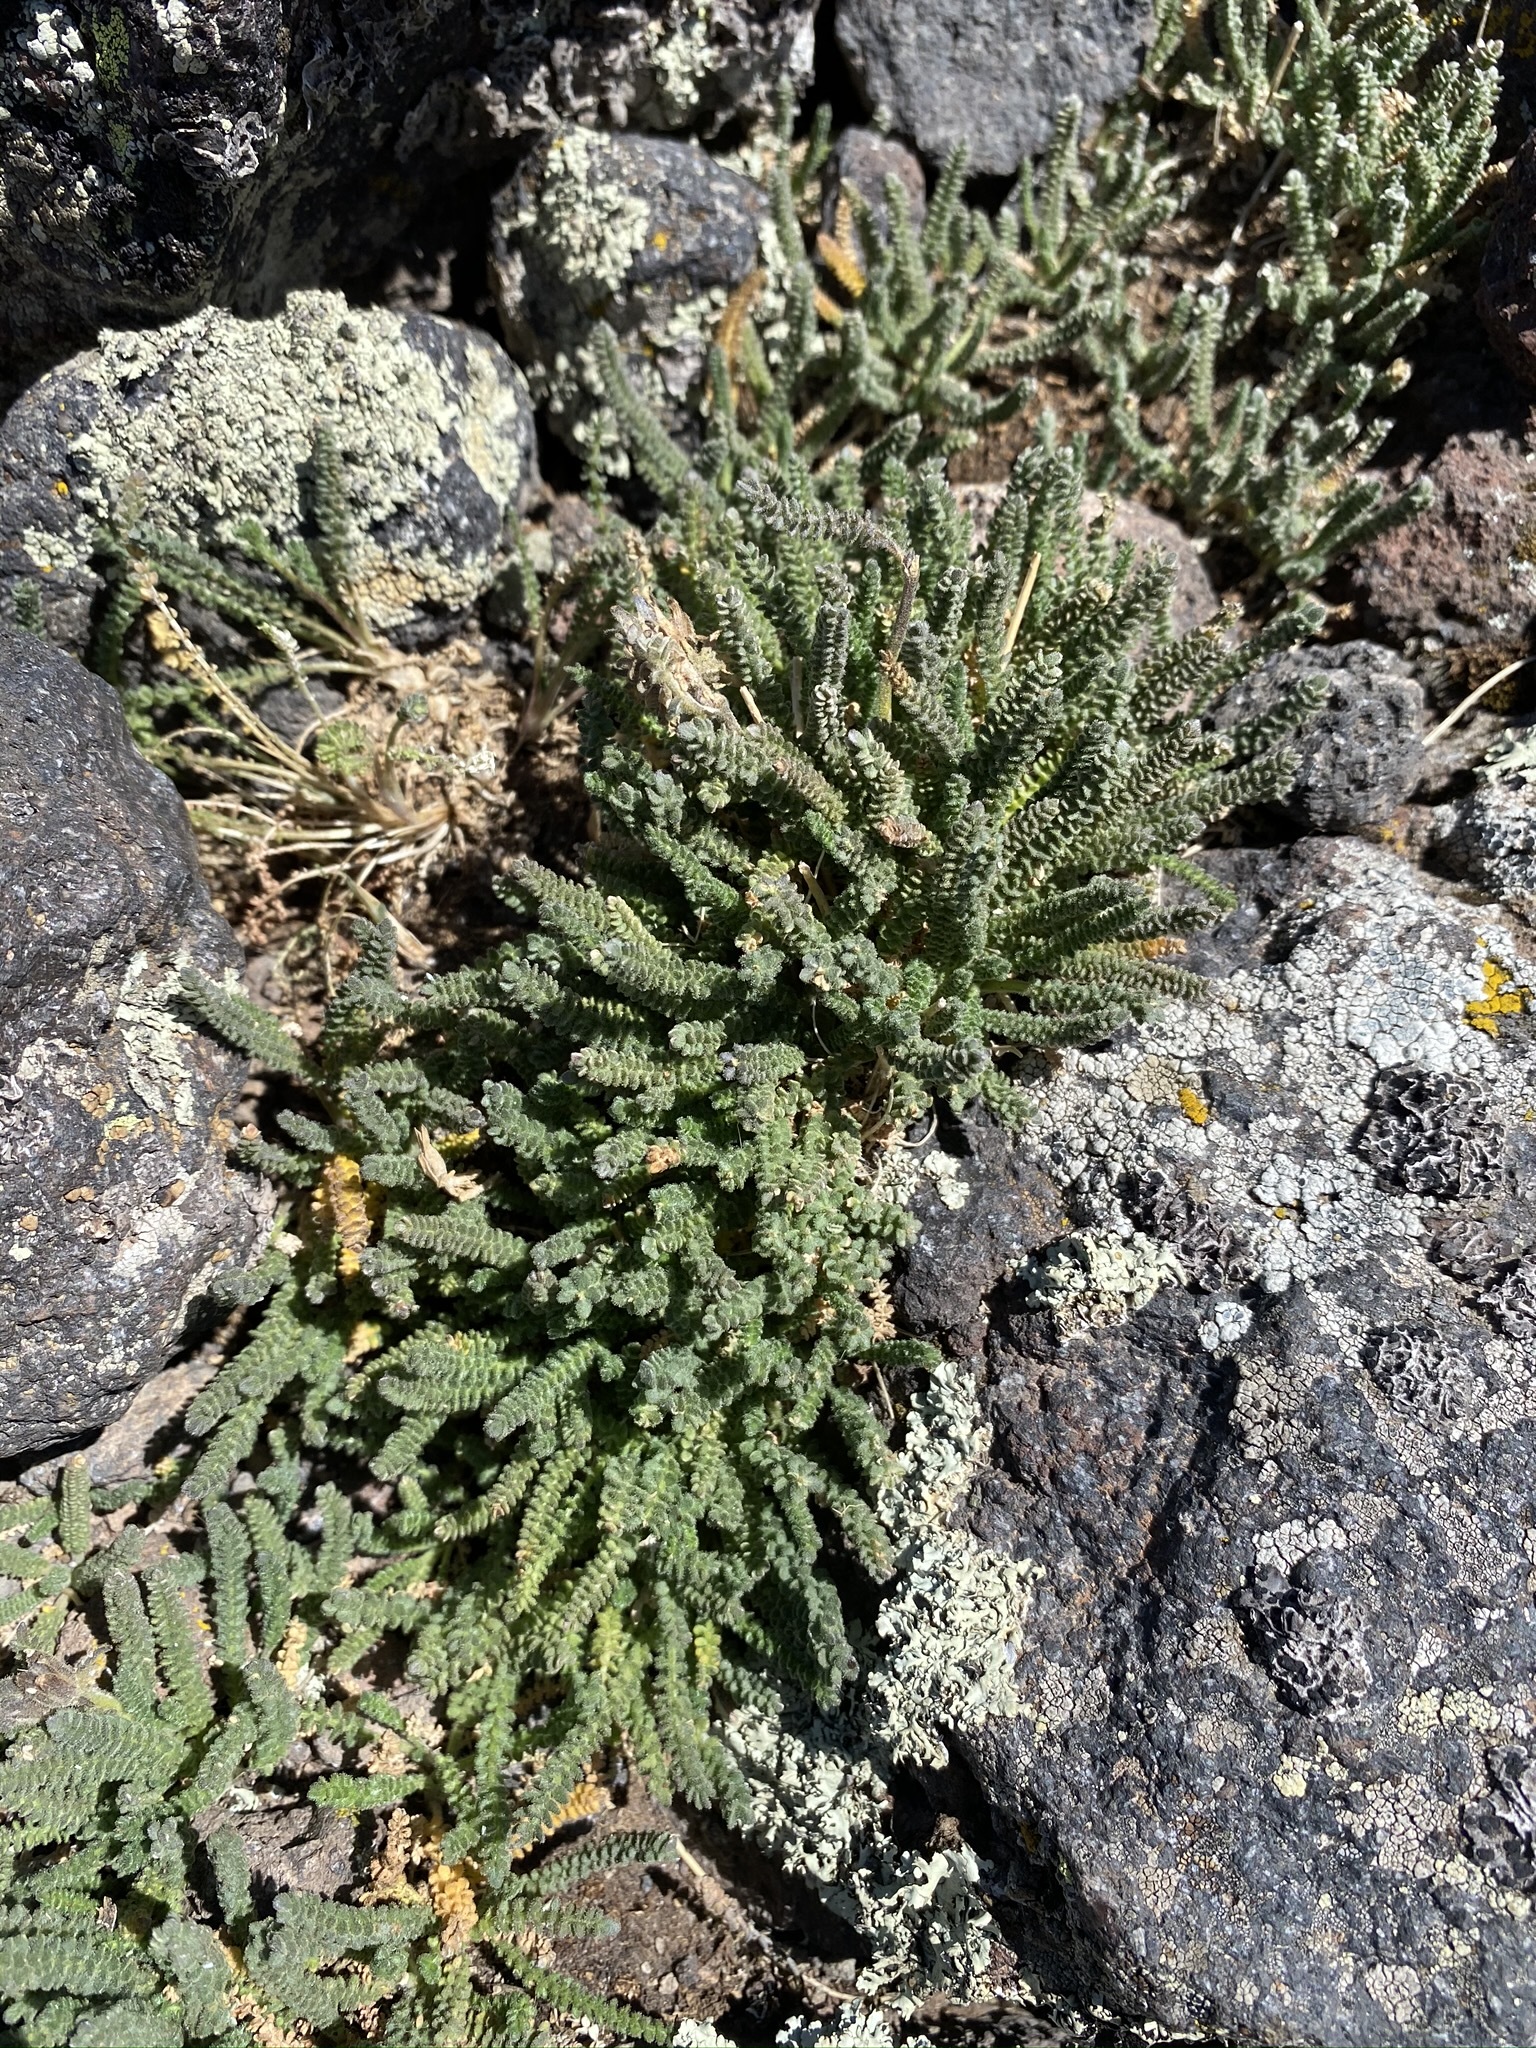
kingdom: Plantae
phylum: Tracheophyta
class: Magnoliopsida
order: Ericales
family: Polemoniaceae
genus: Polemonium
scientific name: Polemonium viscosum
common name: Skunk jacob's-ladder
